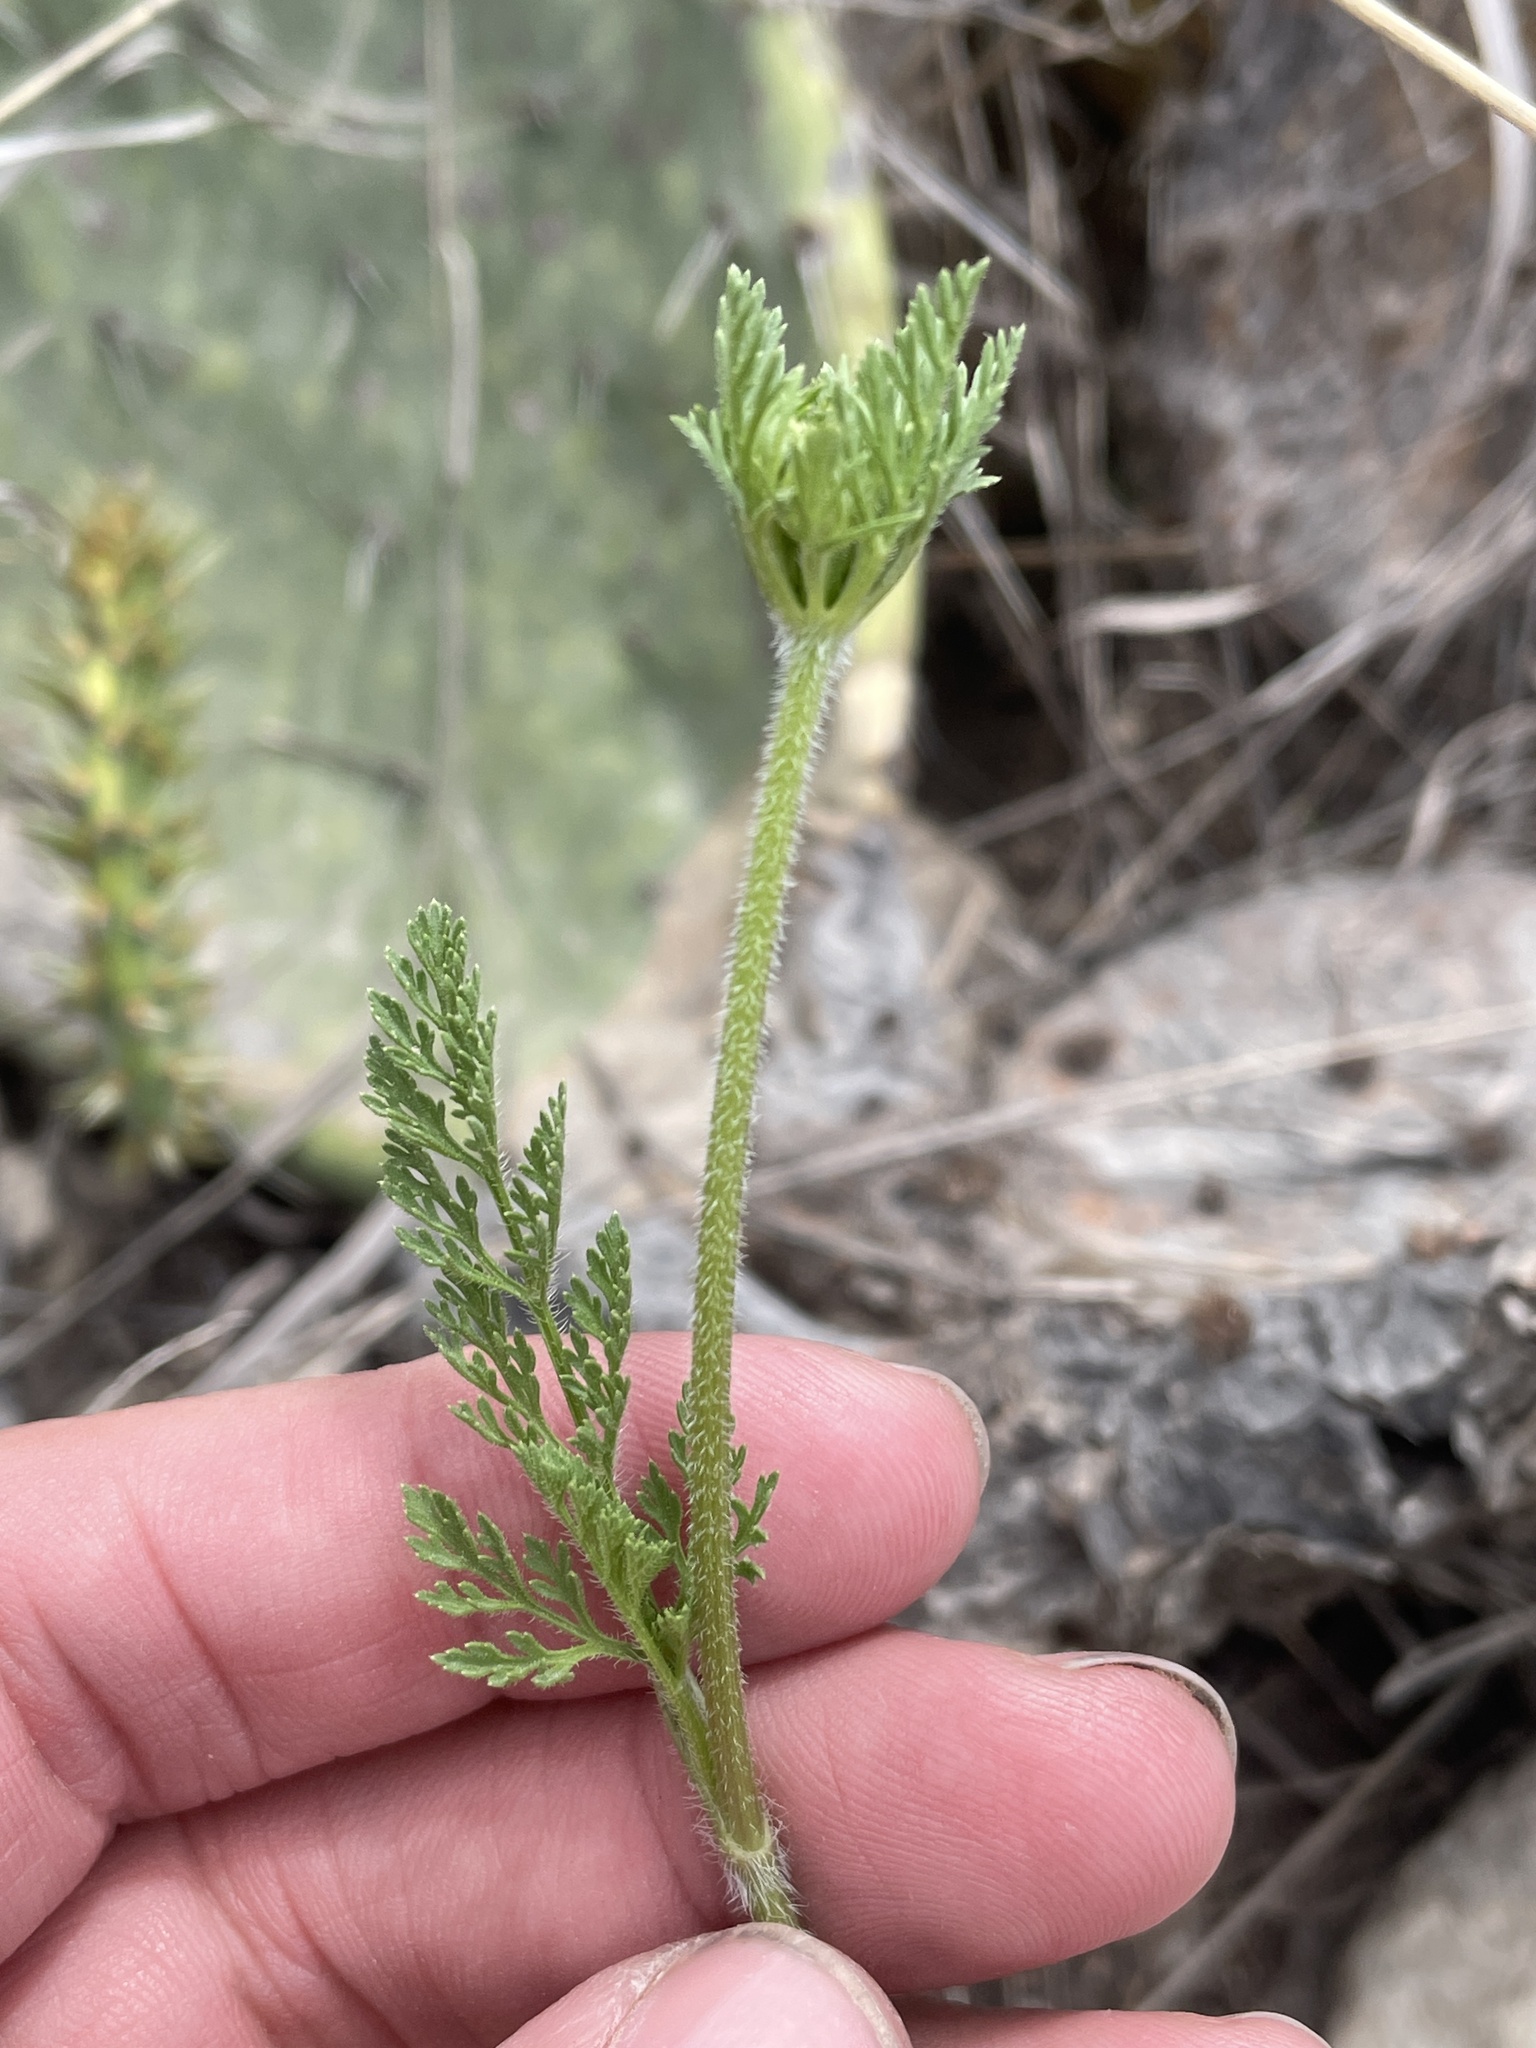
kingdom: Plantae
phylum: Tracheophyta
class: Magnoliopsida
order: Apiales
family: Apiaceae
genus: Daucus
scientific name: Daucus pusillus
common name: Southwest wild carrot
